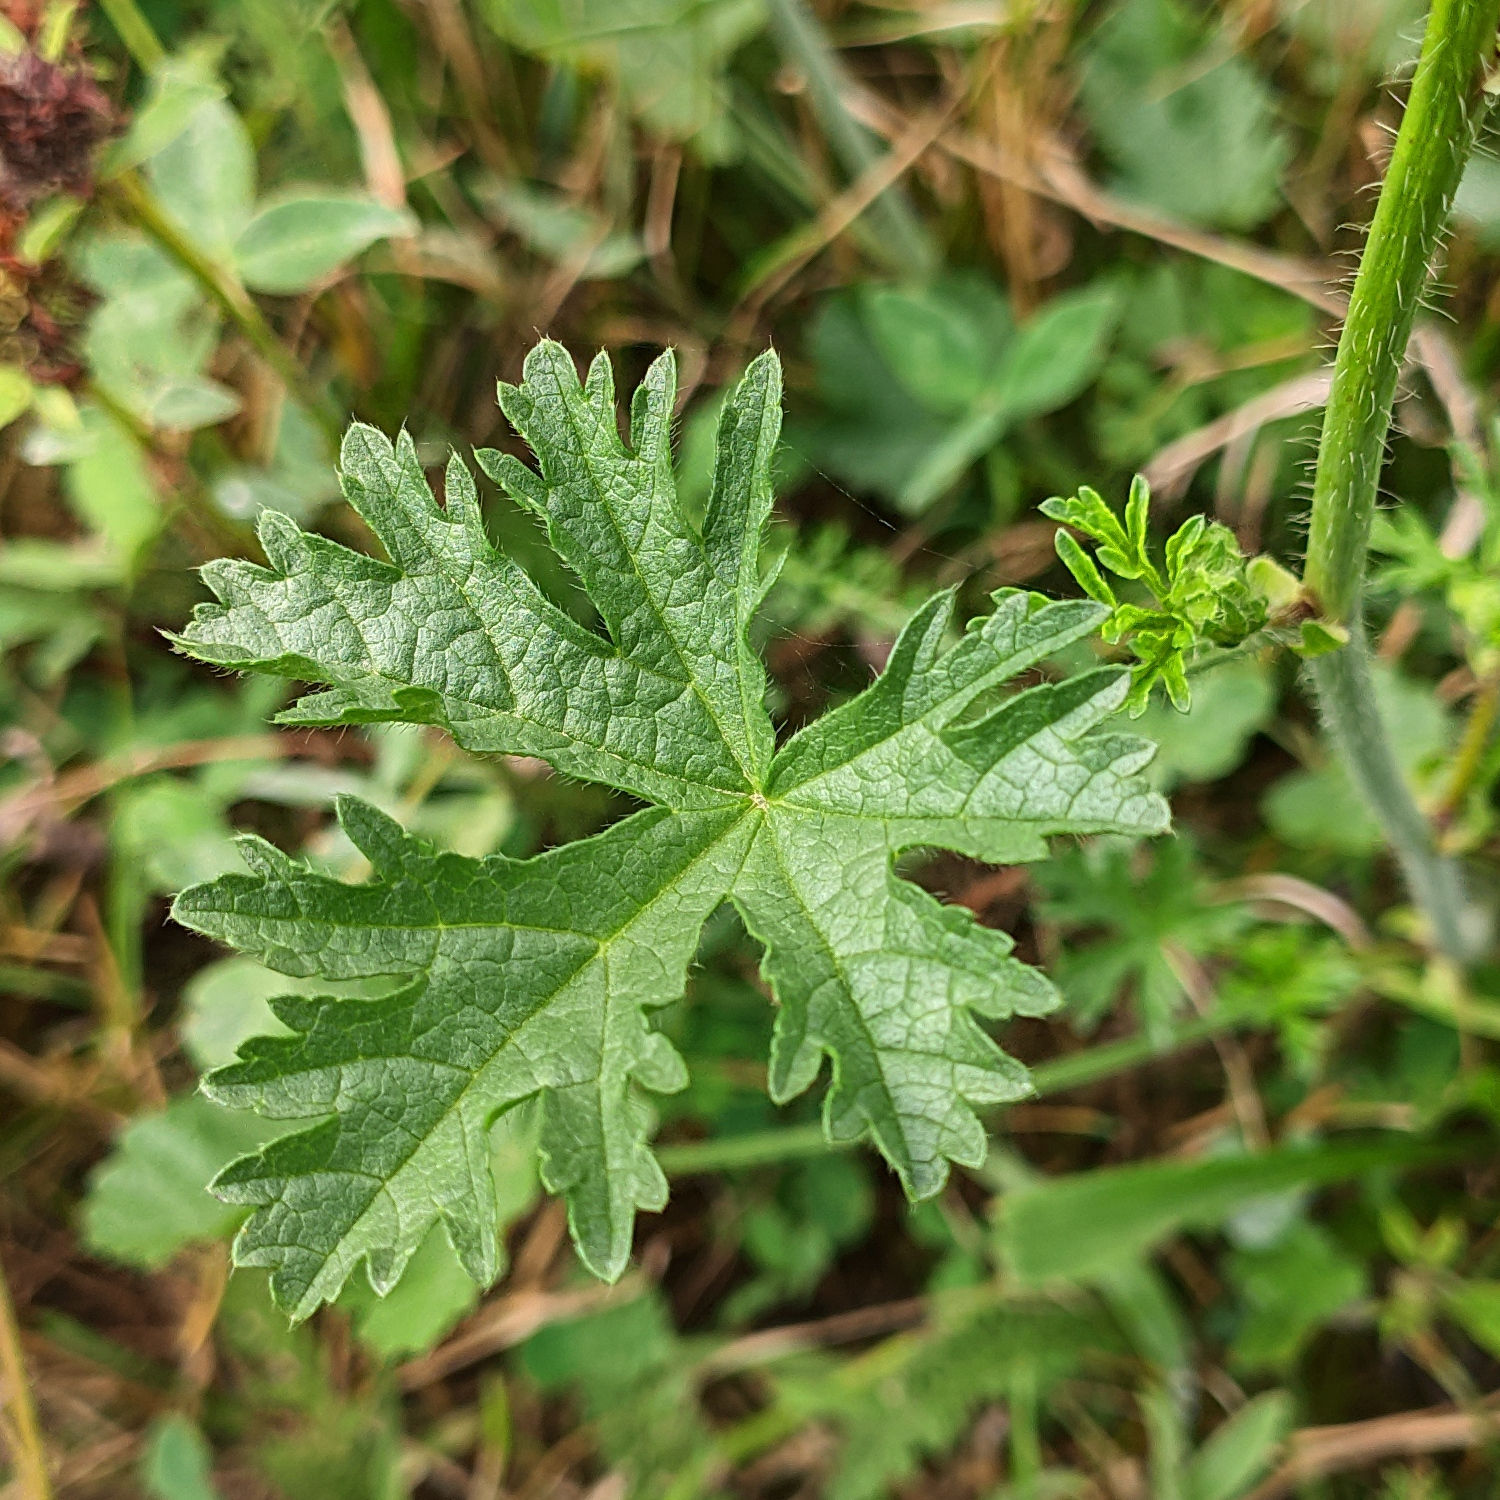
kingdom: Plantae
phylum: Tracheophyta
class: Magnoliopsida
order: Malvales
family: Malvaceae
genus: Malva
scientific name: Malva moschata
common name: Musk mallow
